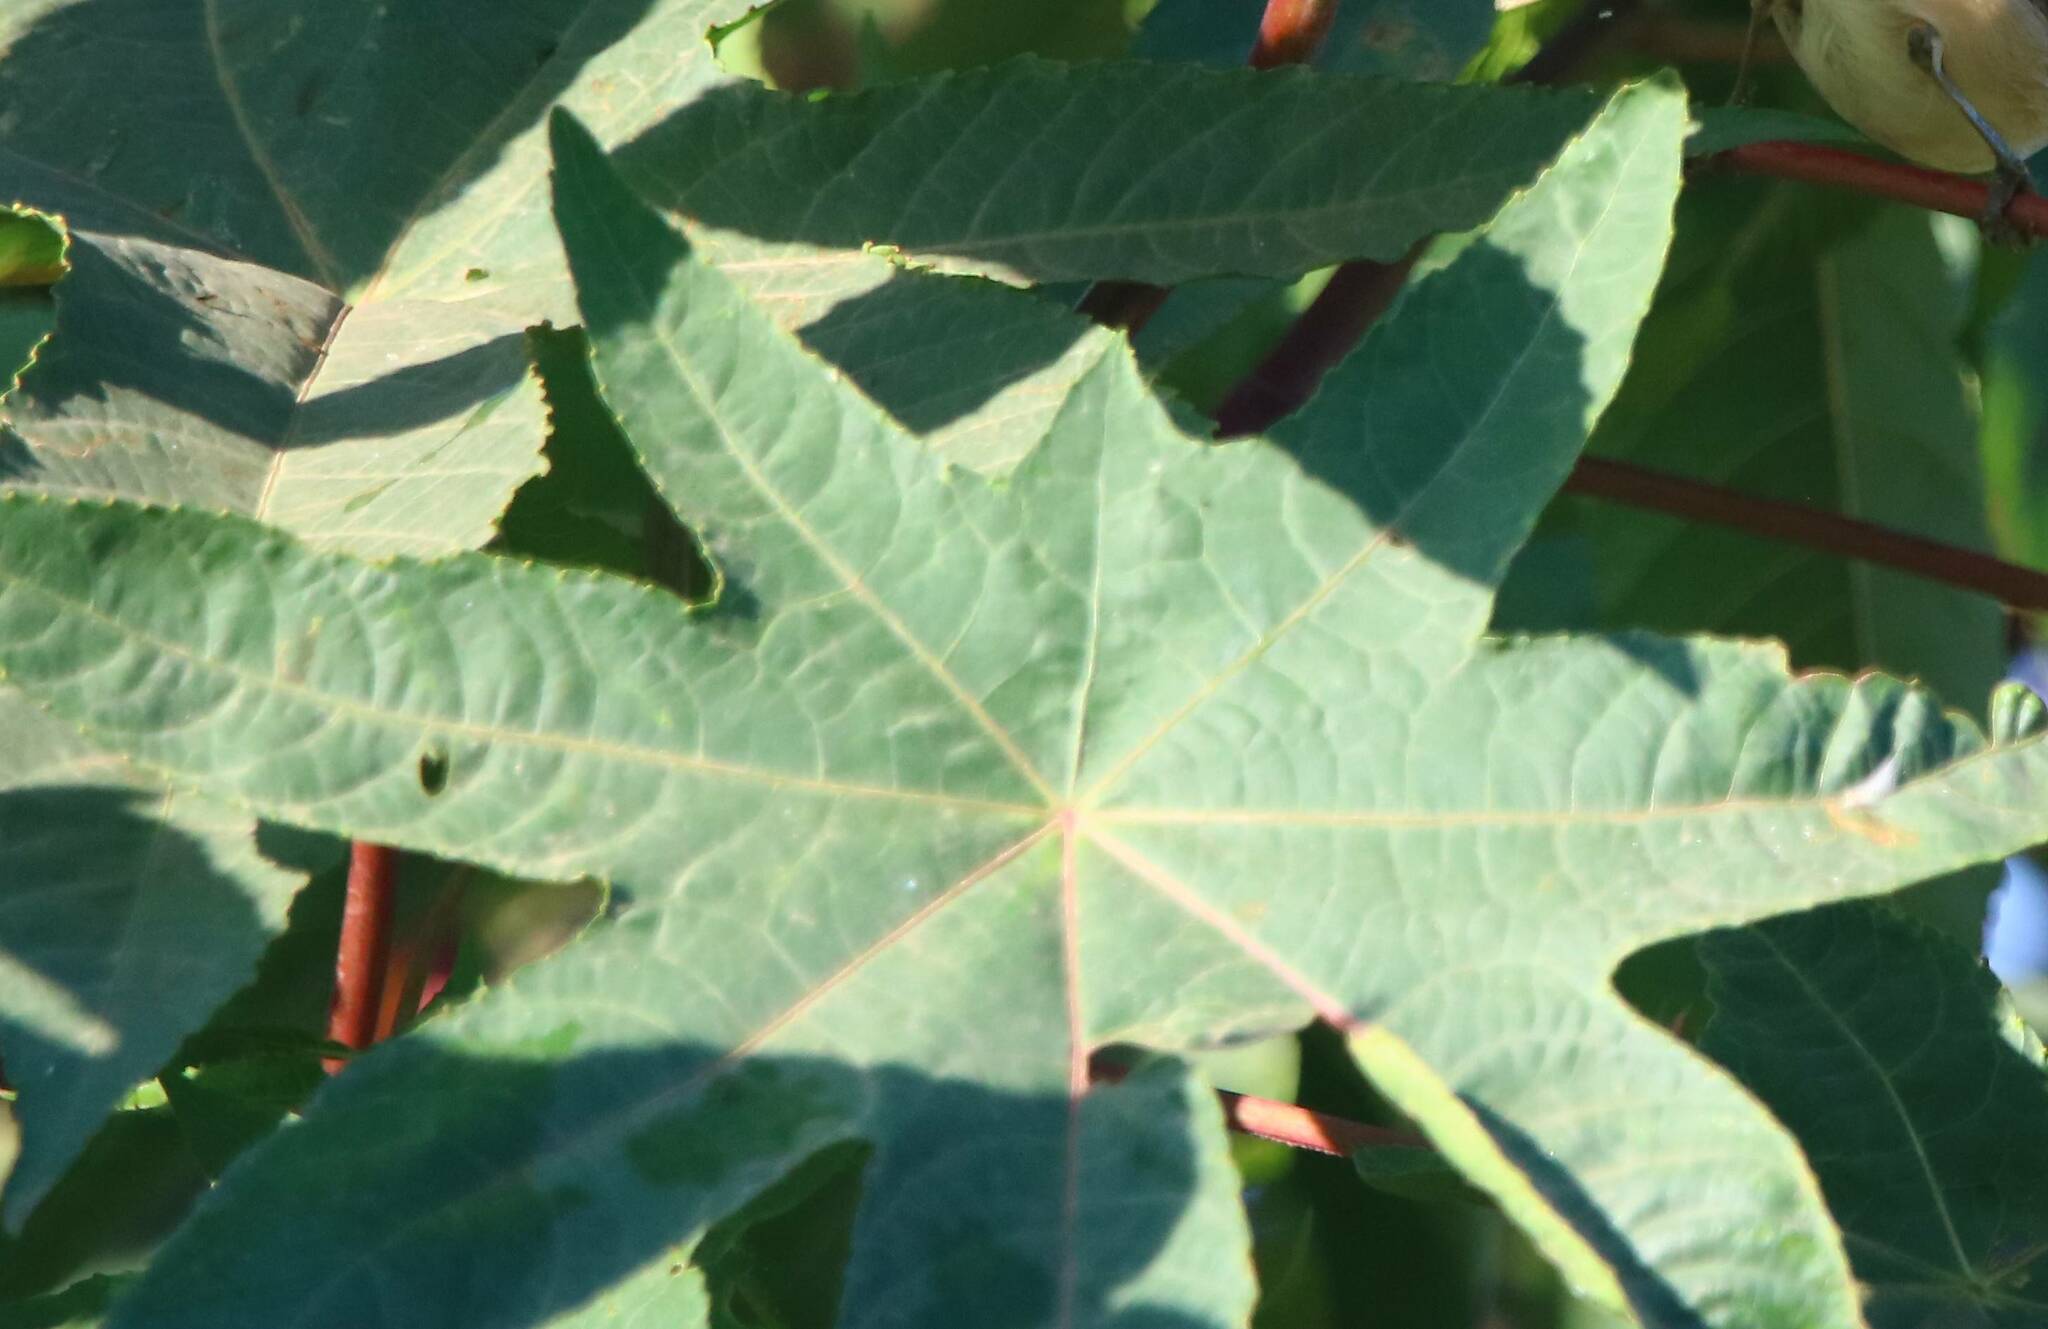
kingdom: Plantae
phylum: Tracheophyta
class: Magnoliopsida
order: Malpighiales
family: Euphorbiaceae
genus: Ricinus
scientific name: Ricinus communis
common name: Castor-oil-plant
